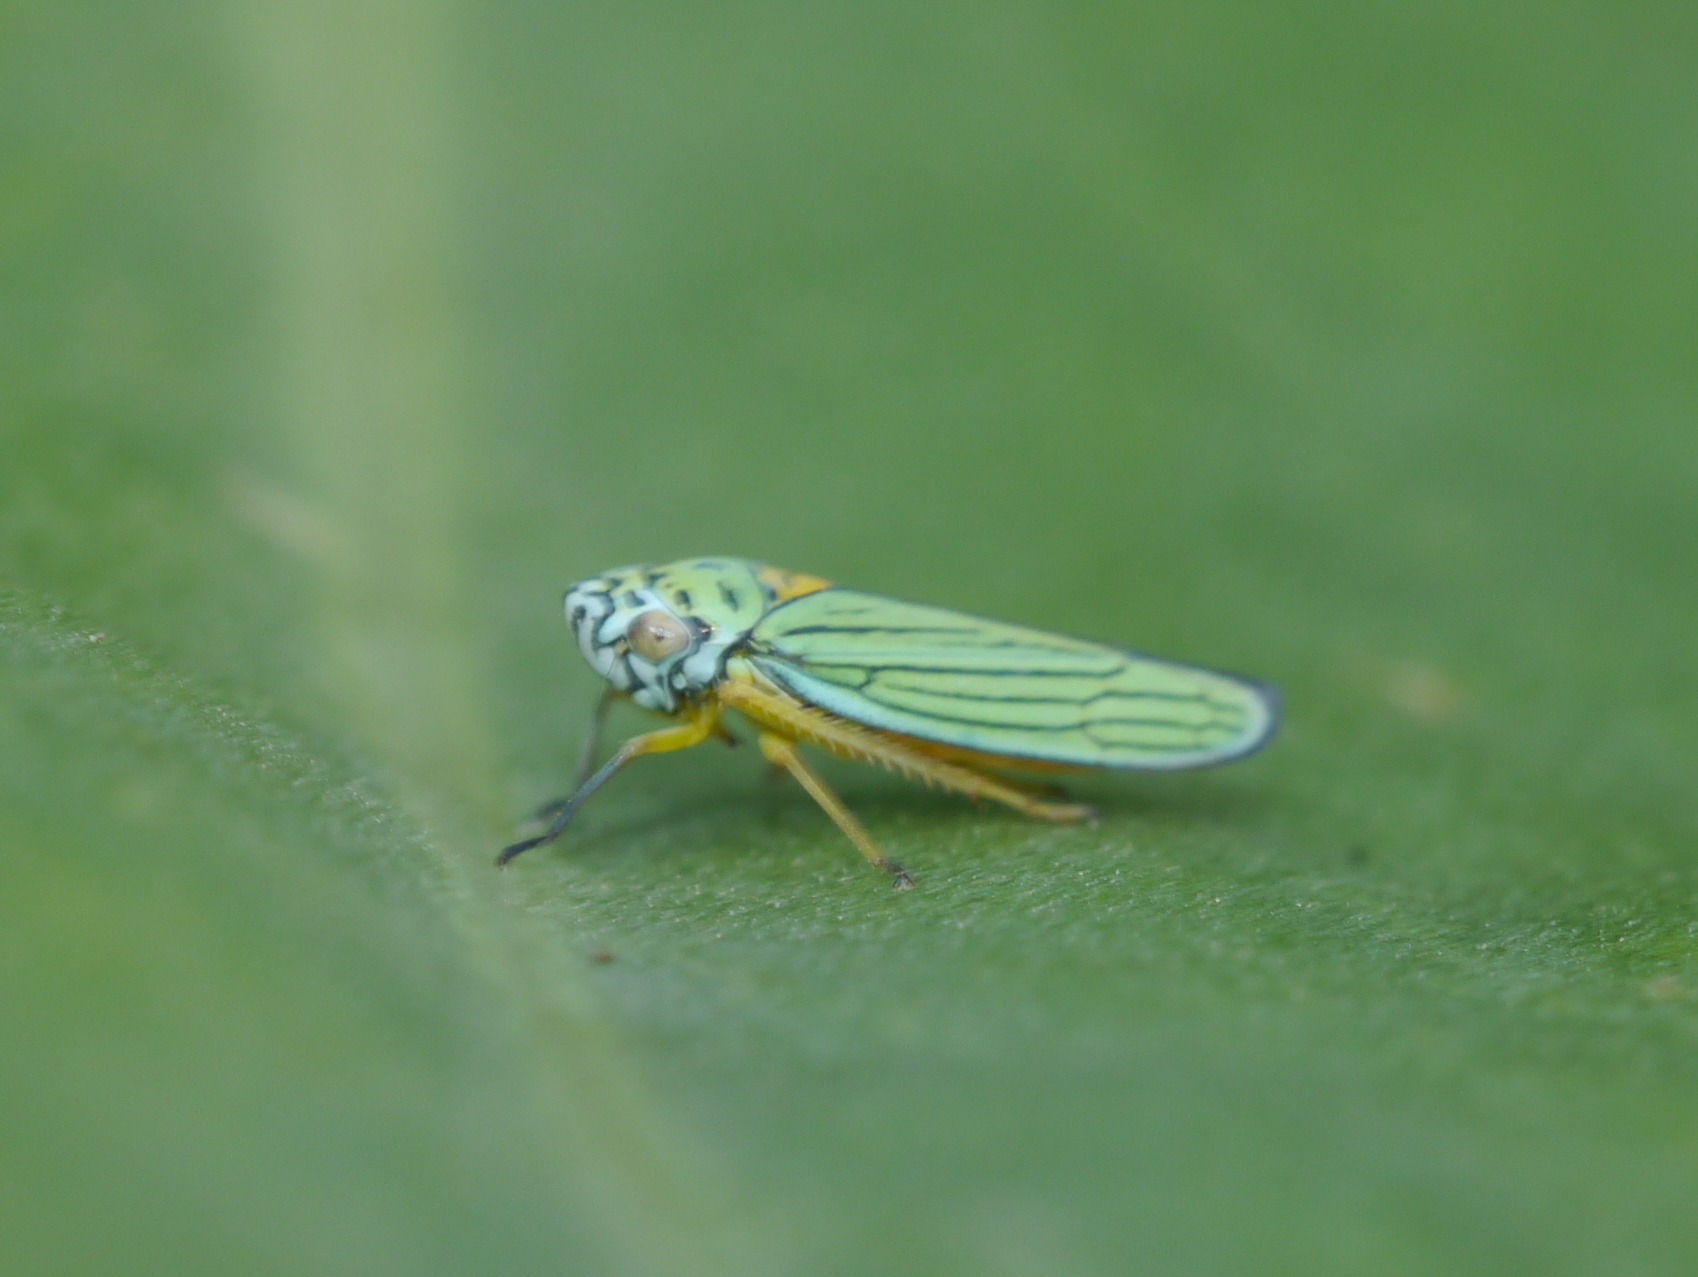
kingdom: Animalia
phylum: Arthropoda
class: Insecta
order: Hemiptera
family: Cicadellidae
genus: Graphocephala
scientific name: Graphocephala atropunctata
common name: Blue-green sharpshooter
